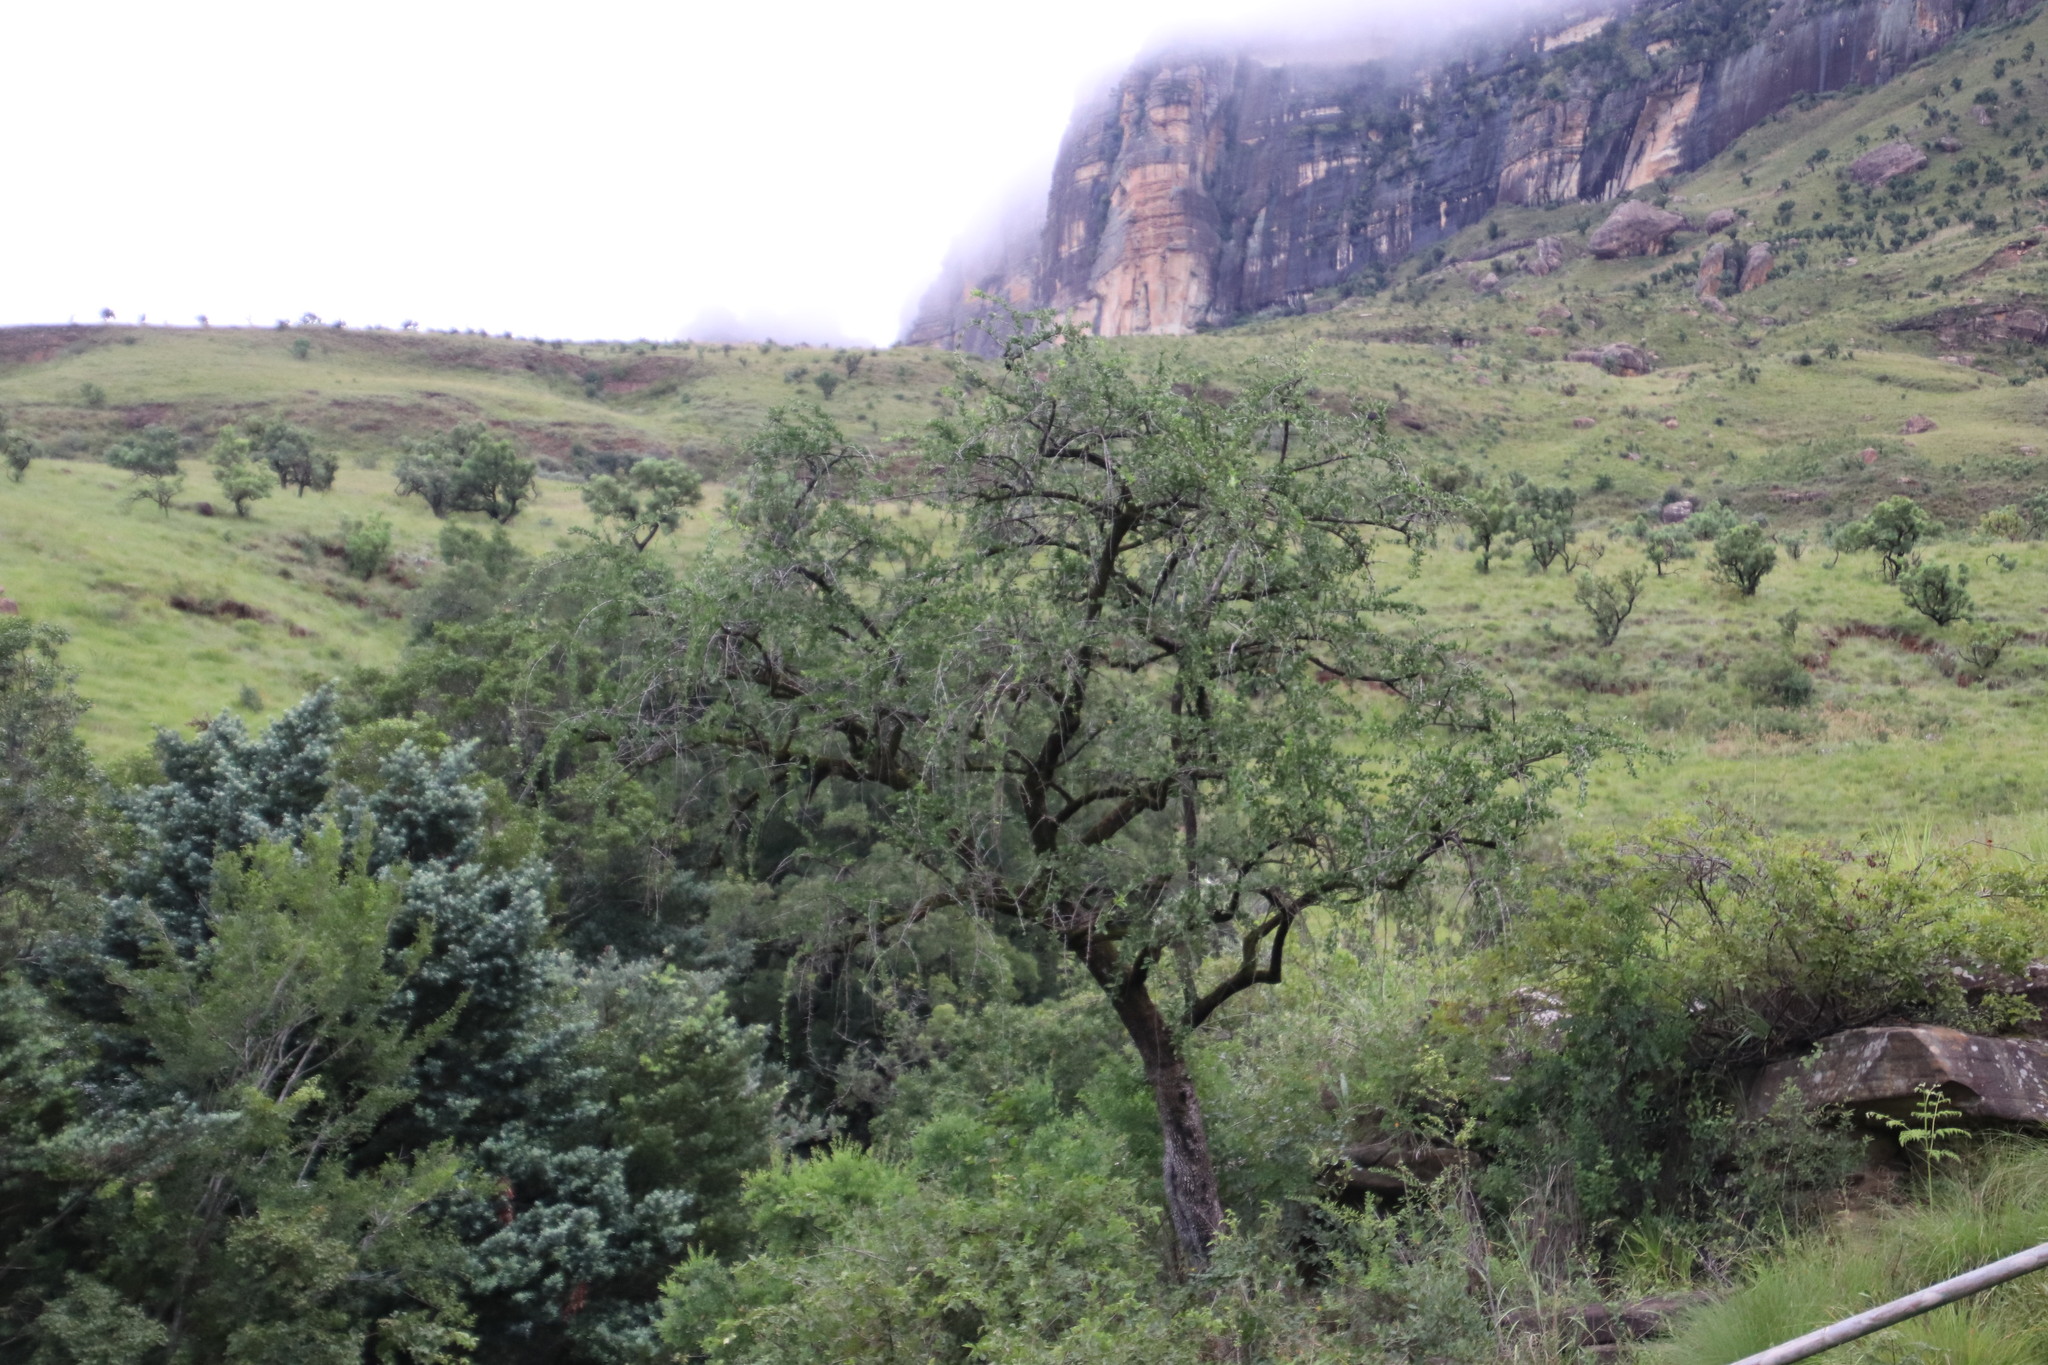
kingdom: Plantae
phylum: Tracheophyta
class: Magnoliopsida
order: Celastrales
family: Celastraceae
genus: Gymnosporia
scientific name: Gymnosporia buxifolia
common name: Common spike-thorn
